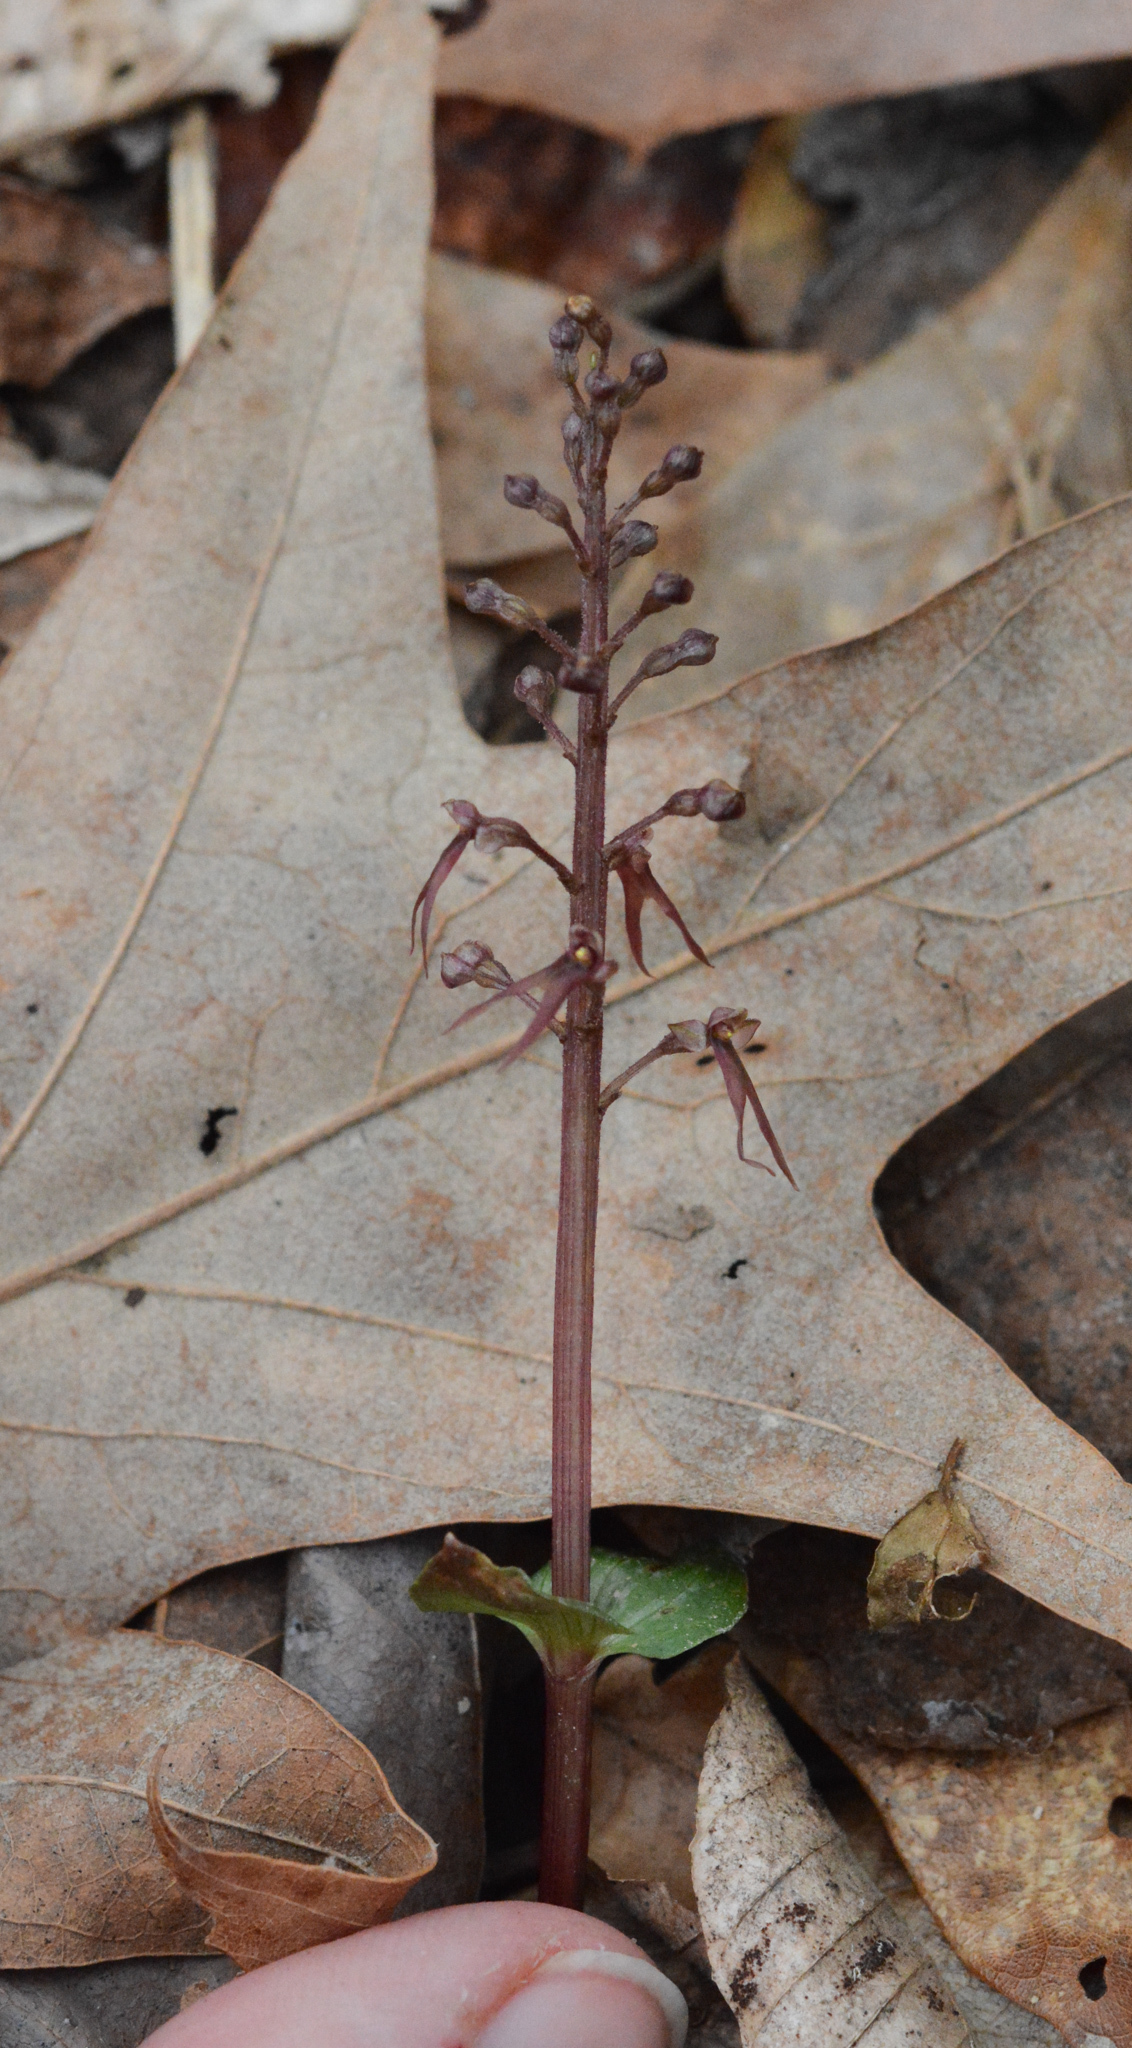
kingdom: Plantae
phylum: Tracheophyta
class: Liliopsida
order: Asparagales
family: Orchidaceae
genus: Neottia
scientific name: Neottia bifolia
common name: Southern twayblade
